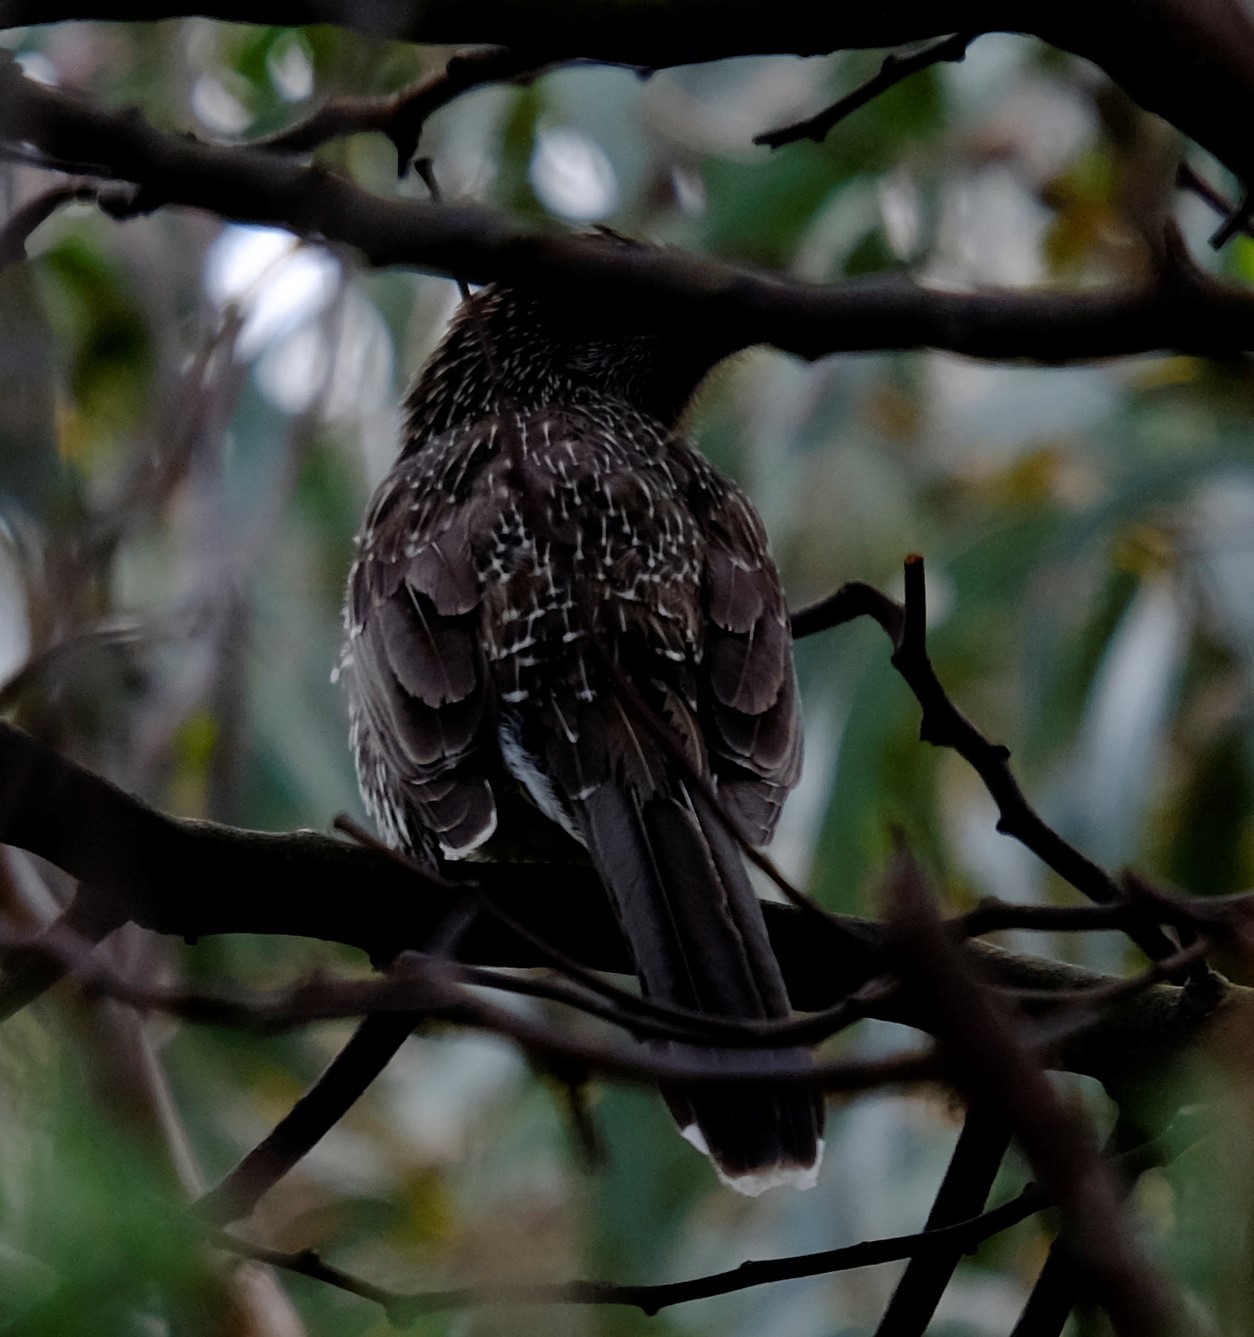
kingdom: Animalia
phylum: Chordata
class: Aves
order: Passeriformes
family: Meliphagidae
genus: Anthochaera
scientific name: Anthochaera chrysoptera
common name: Little wattlebird
